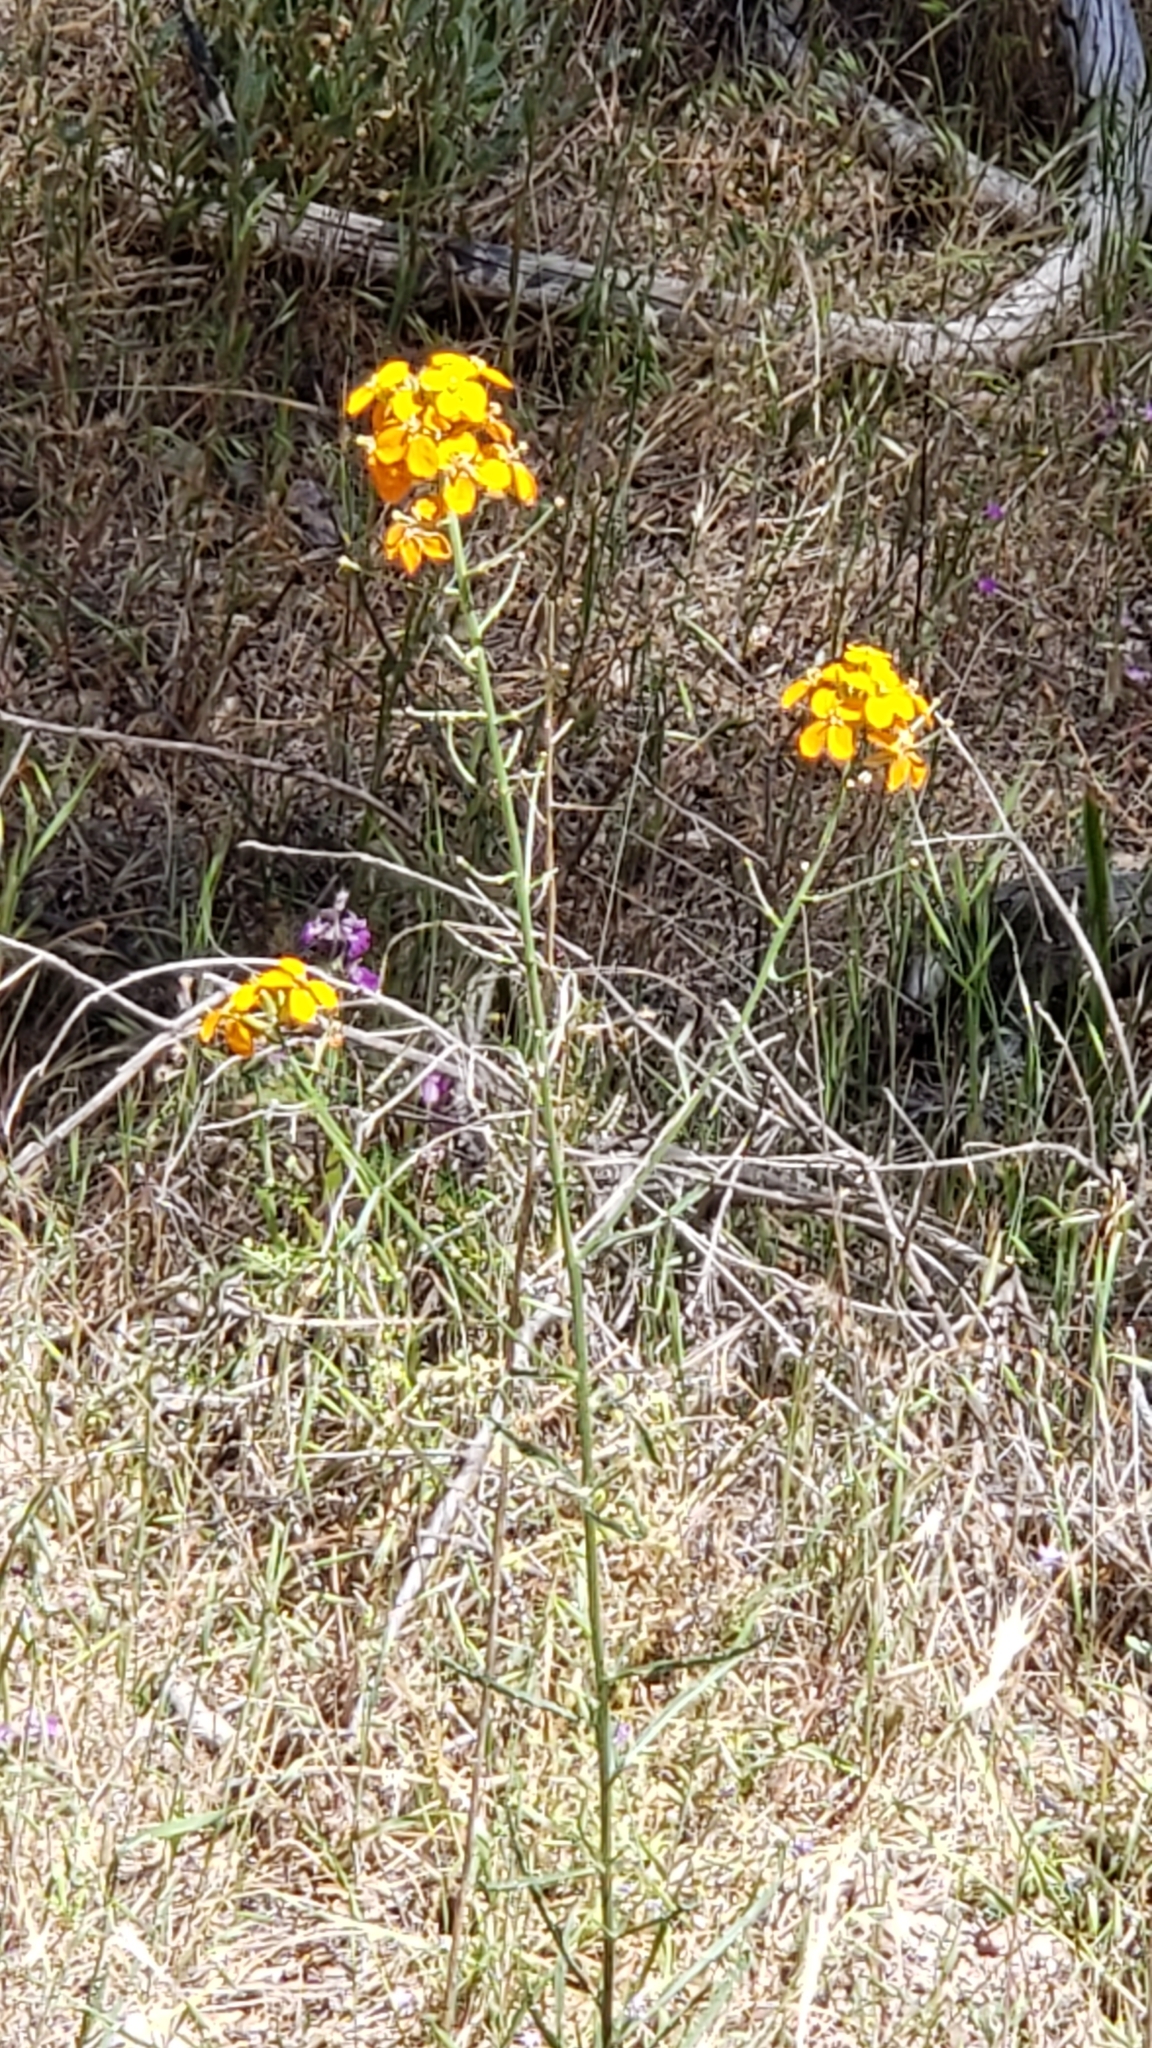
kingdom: Plantae
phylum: Tracheophyta
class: Magnoliopsida
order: Brassicales
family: Brassicaceae
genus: Erysimum
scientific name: Erysimum capitatum
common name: Western wallflower
